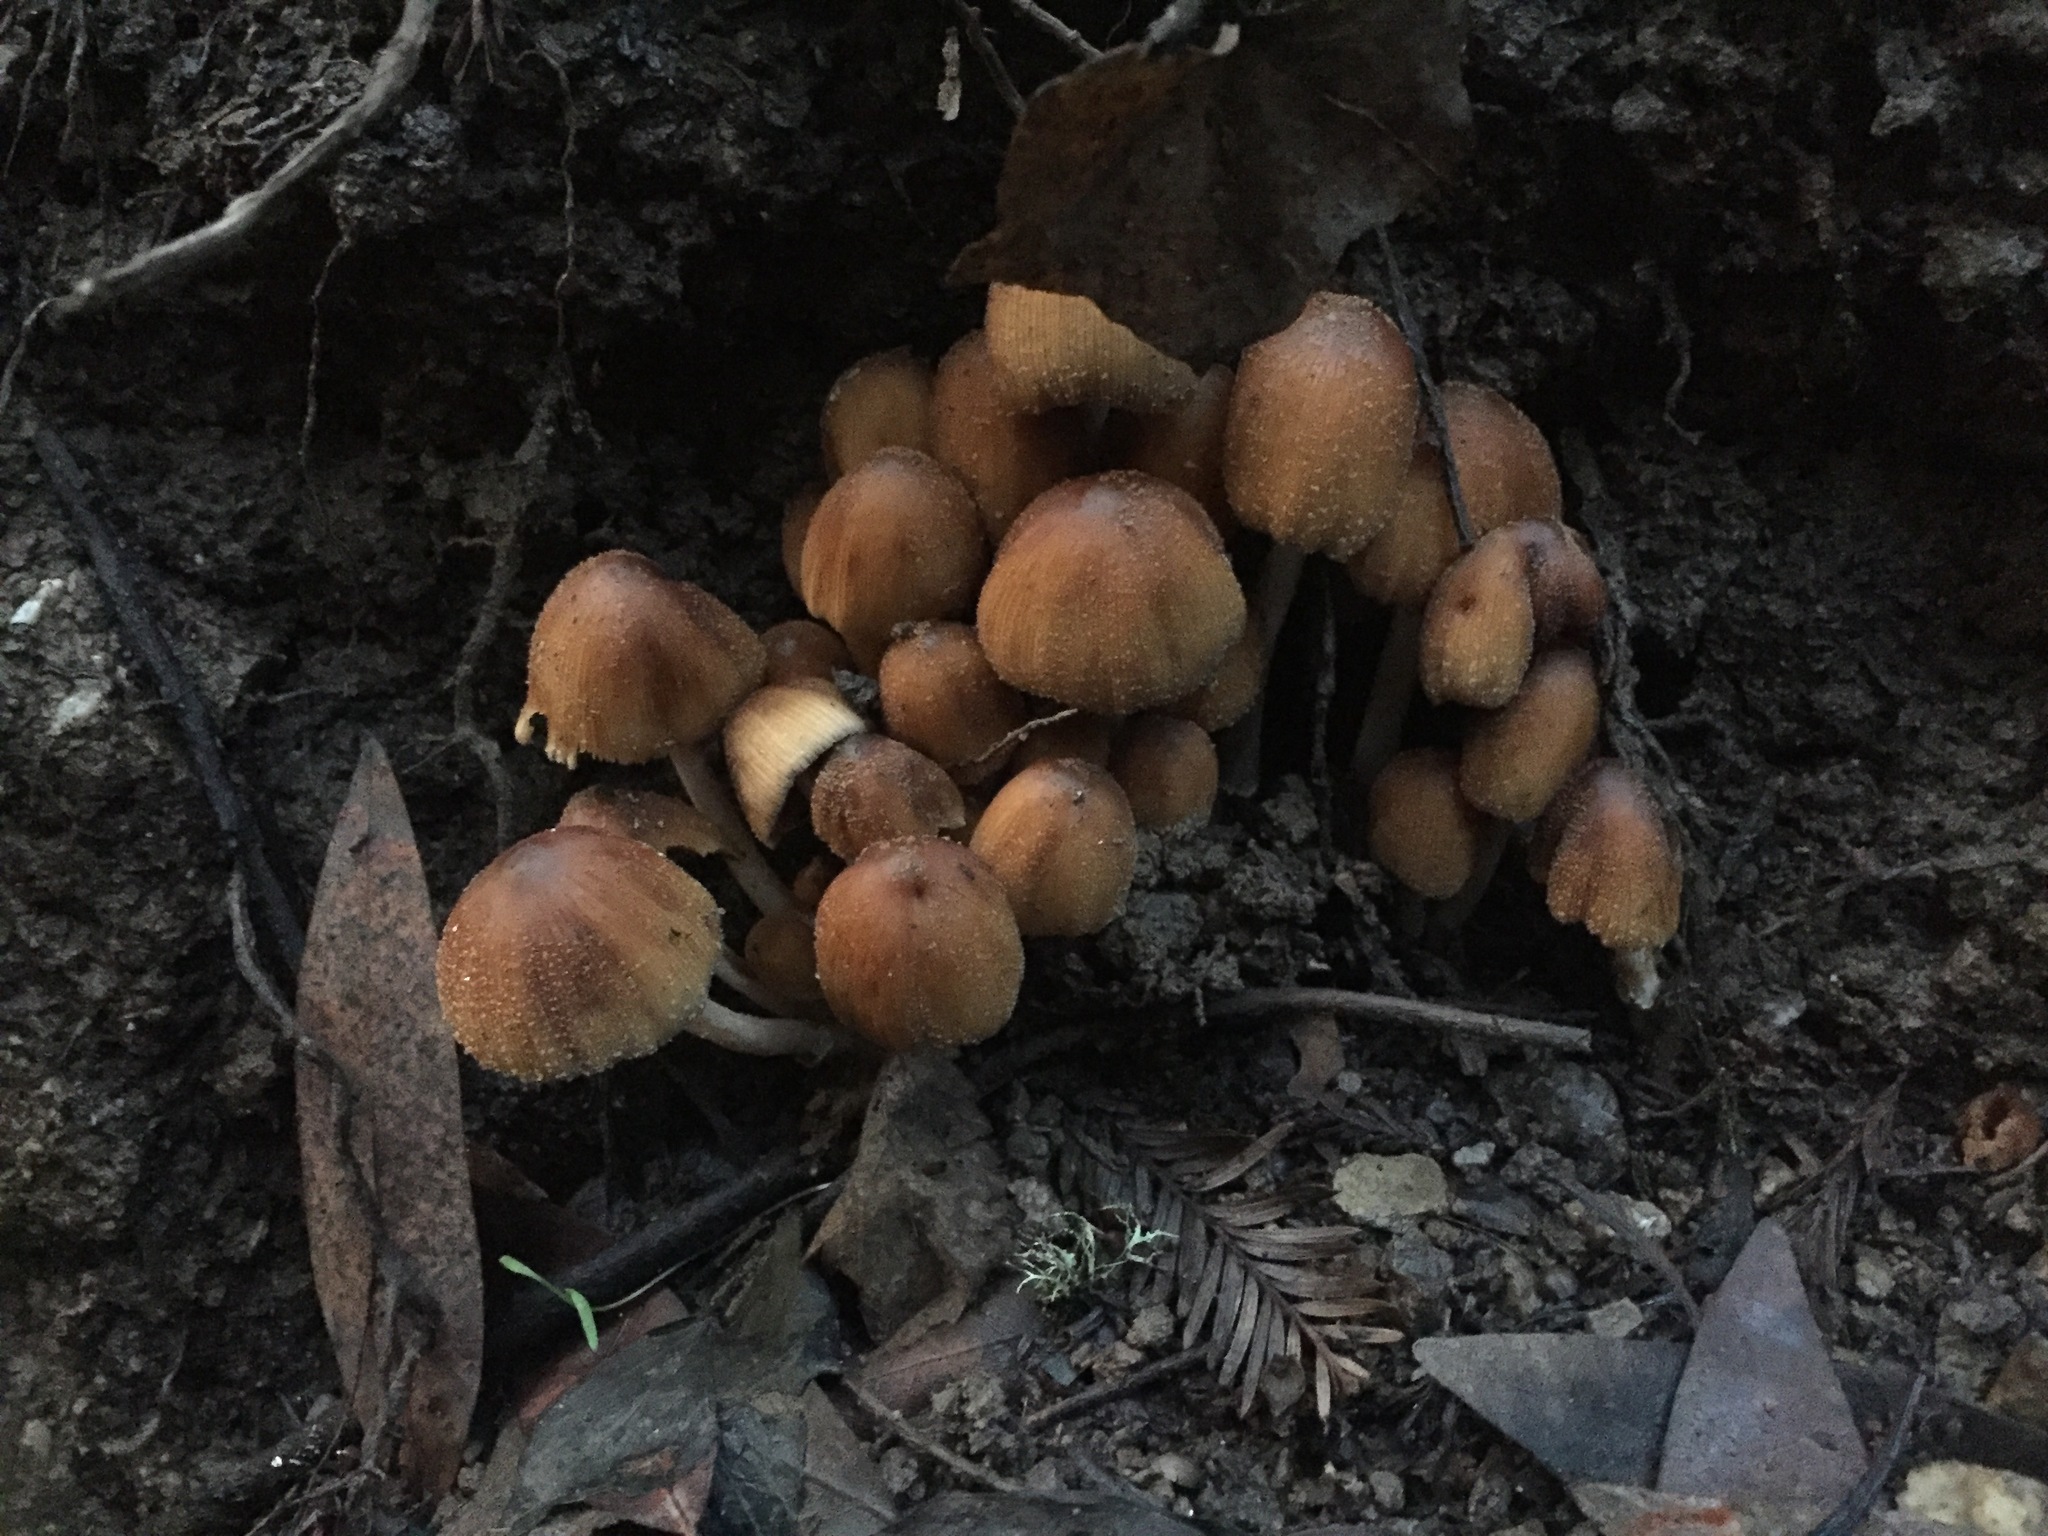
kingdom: Fungi
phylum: Basidiomycota
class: Agaricomycetes
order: Agaricales
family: Psathyrellaceae
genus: Coprinellus
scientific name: Coprinellus micaceus
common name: Glistening ink-cap
